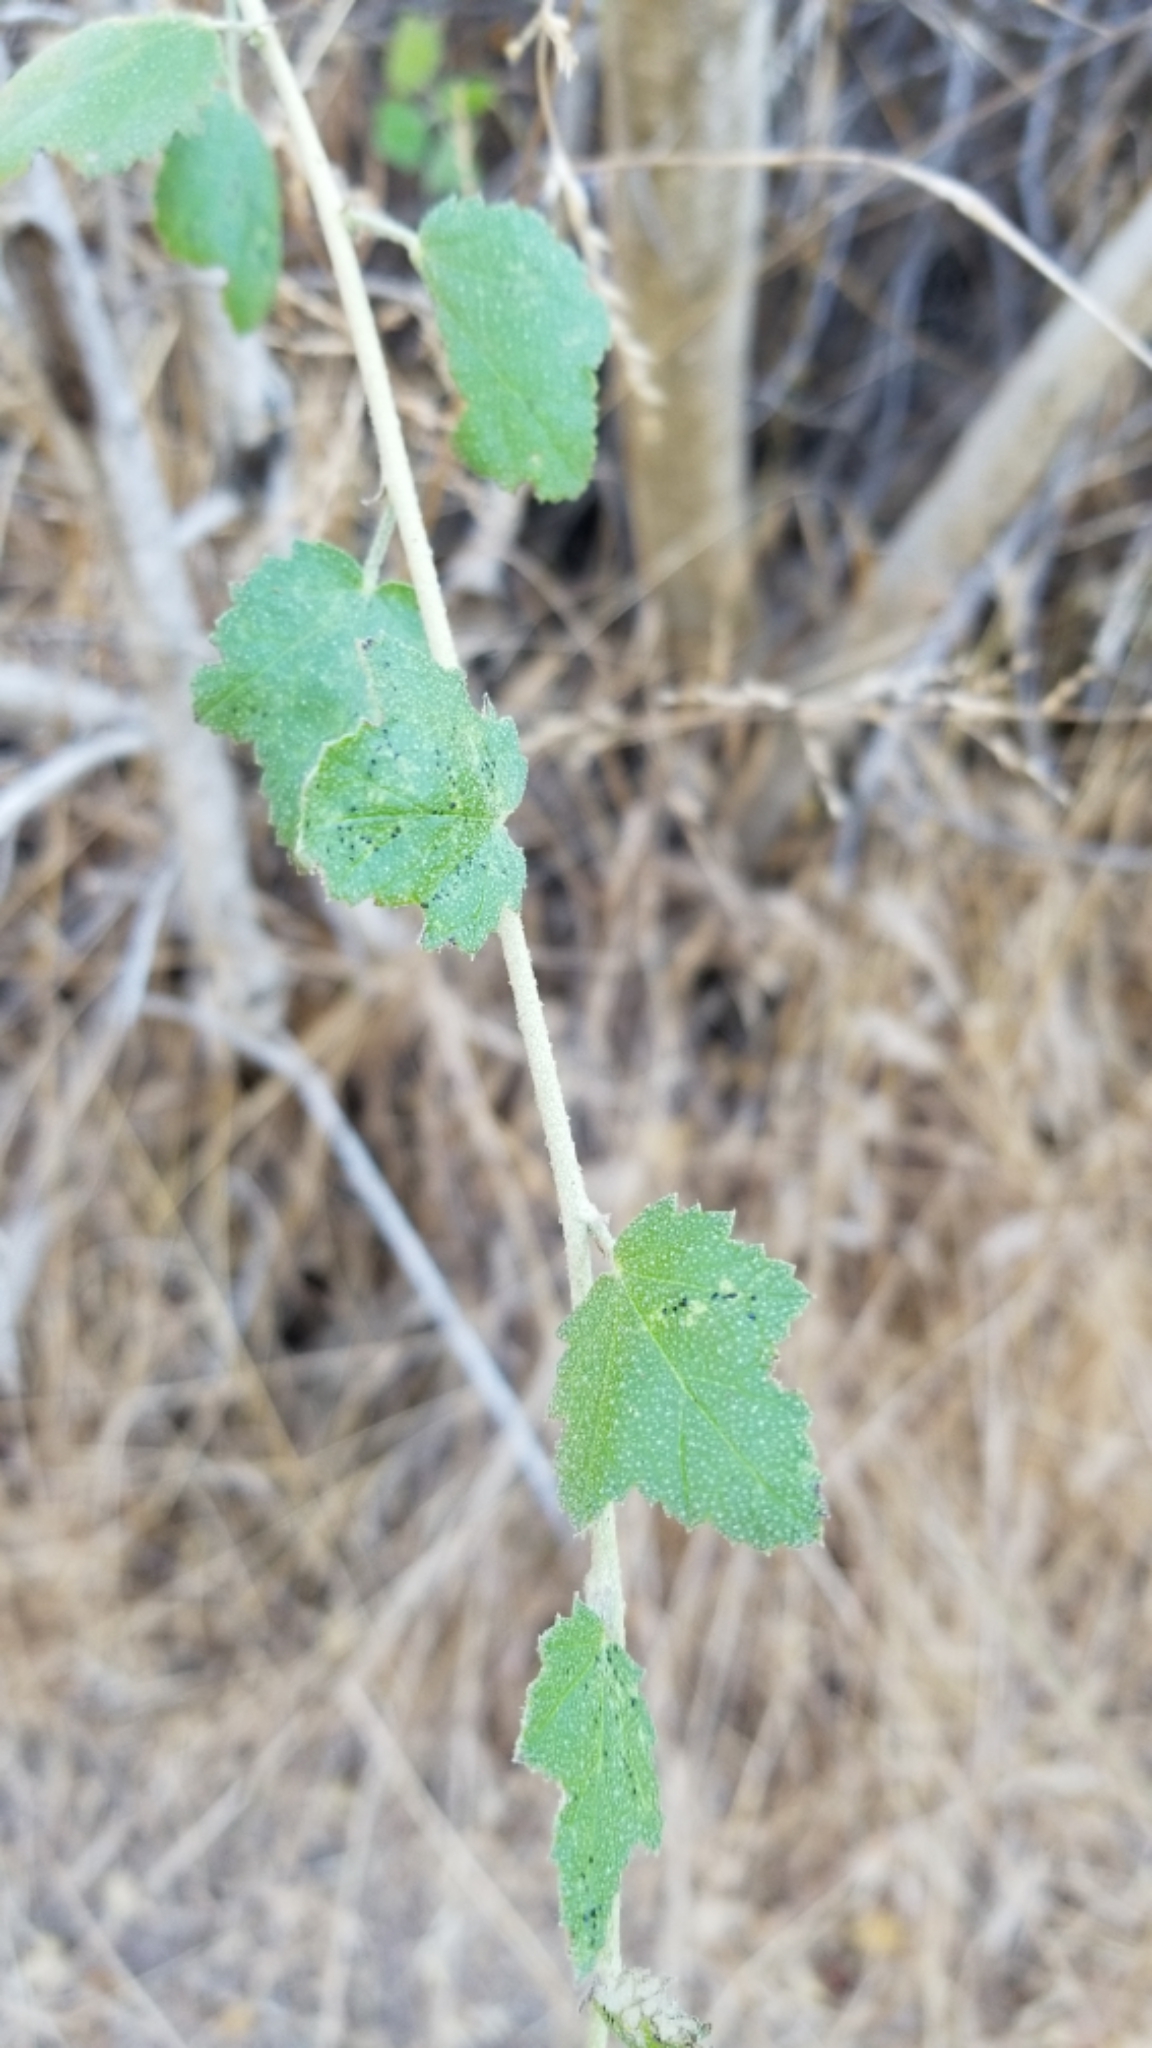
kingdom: Plantae
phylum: Tracheophyta
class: Magnoliopsida
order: Malvales
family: Malvaceae
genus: Malacothamnus
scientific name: Malacothamnus fasciculatus
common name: Sant cruz island bush-mallow
